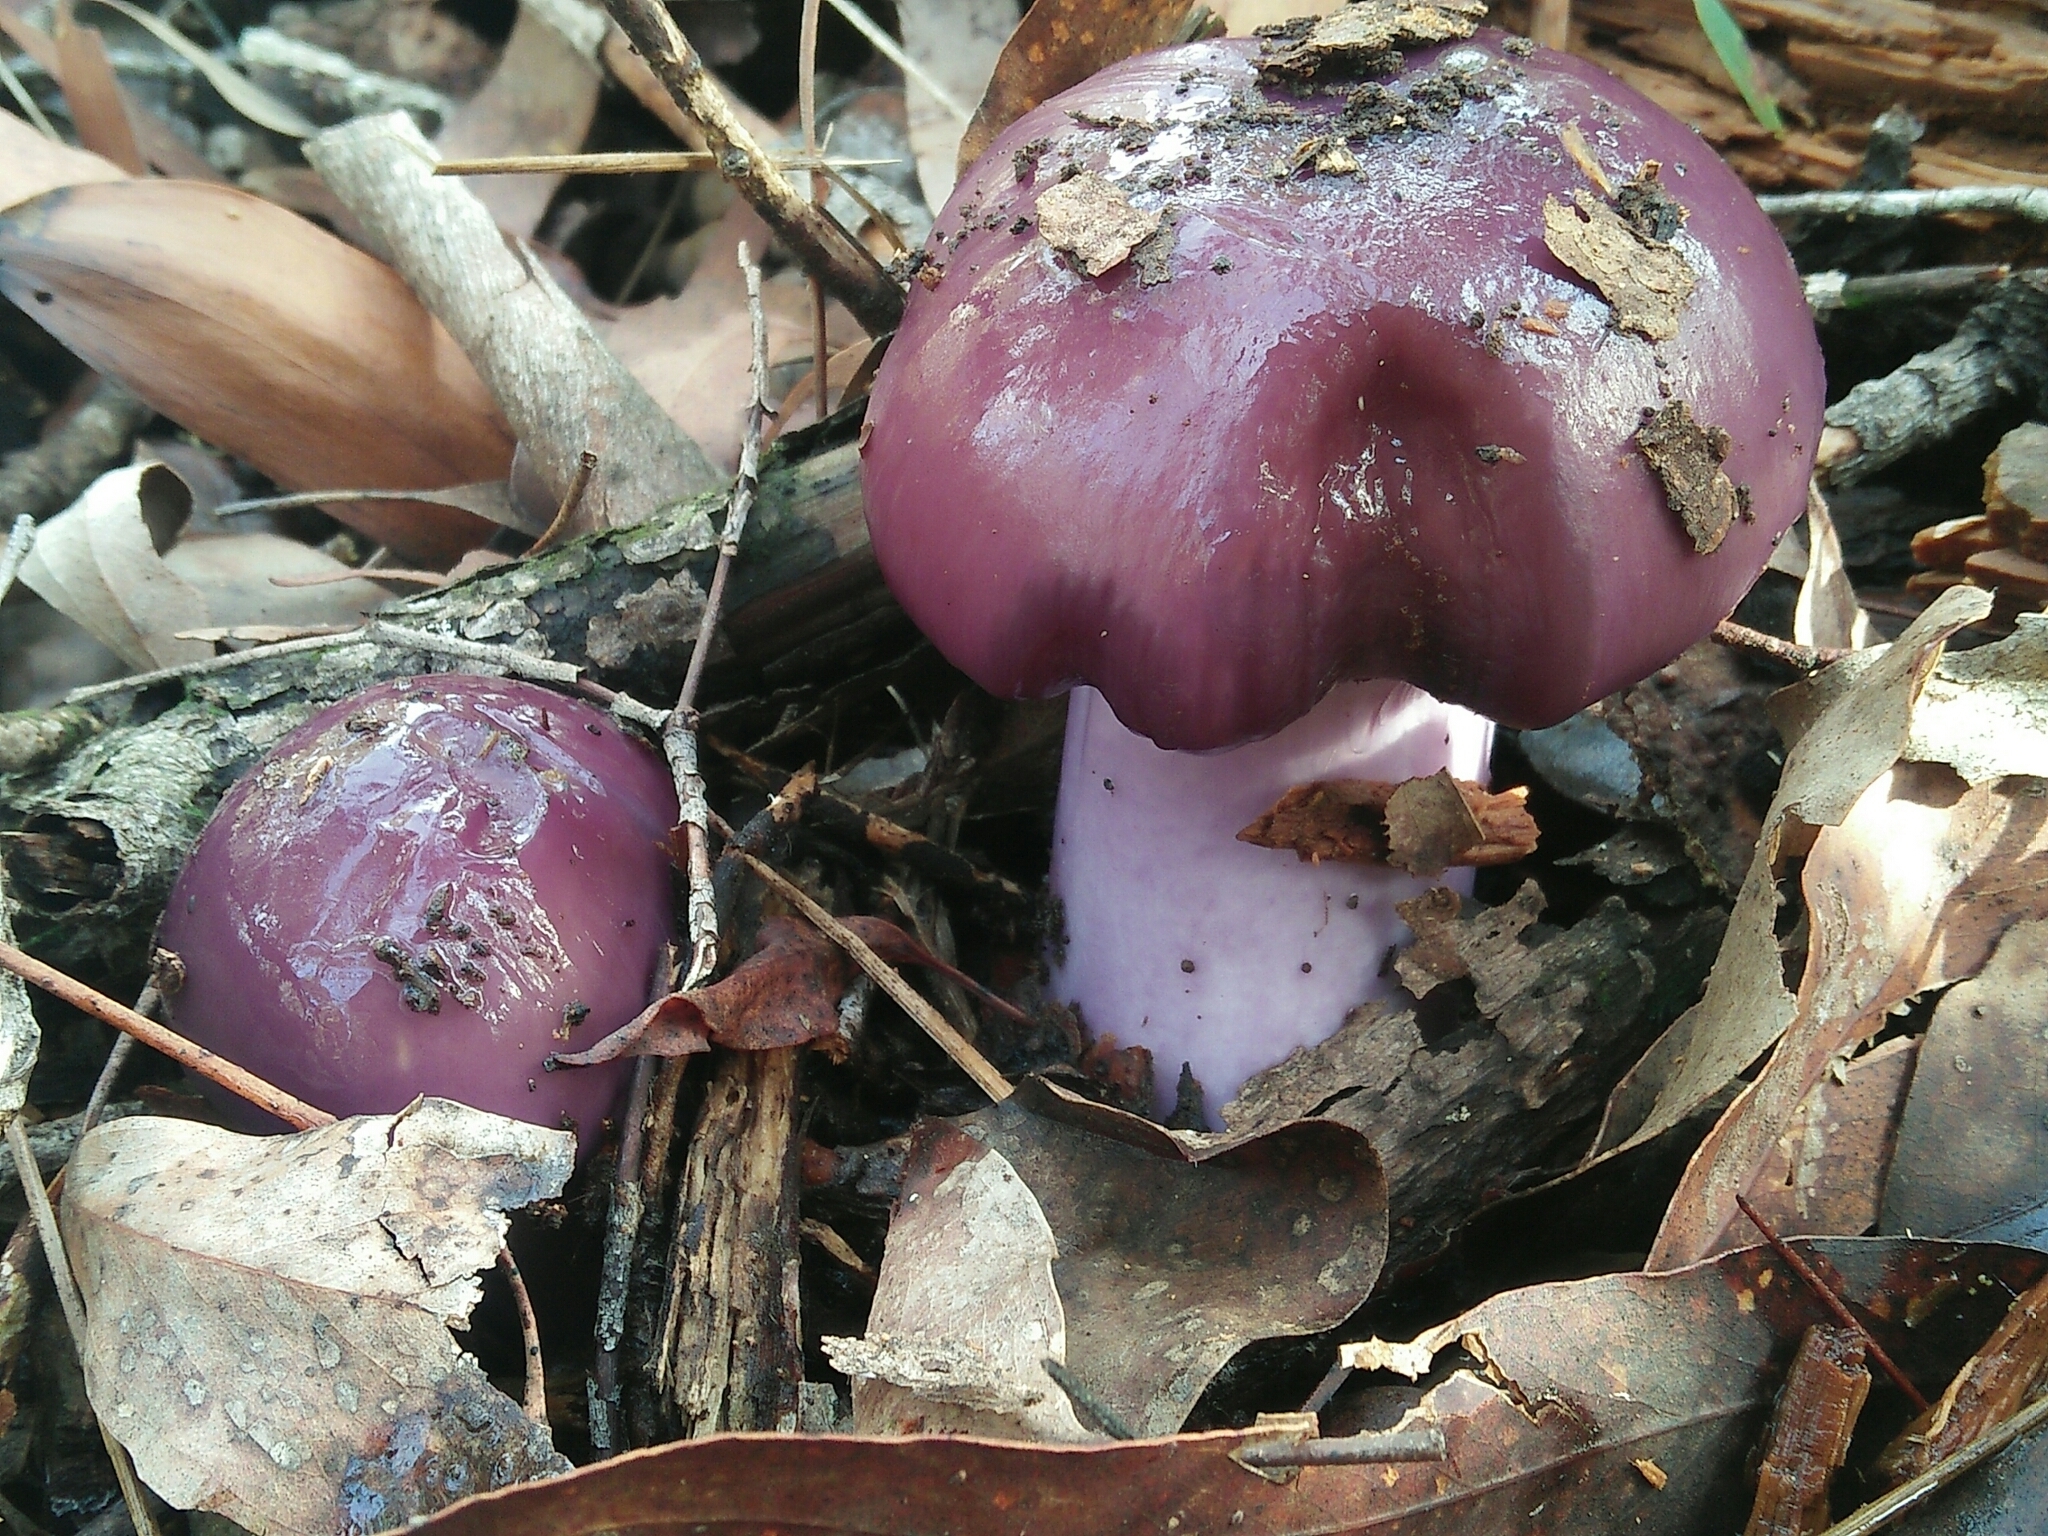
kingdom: Fungi
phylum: Basidiomycota
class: Agaricomycetes
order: Agaricales
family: Cortinariaceae
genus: Cortinarius
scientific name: Cortinarius archeri
